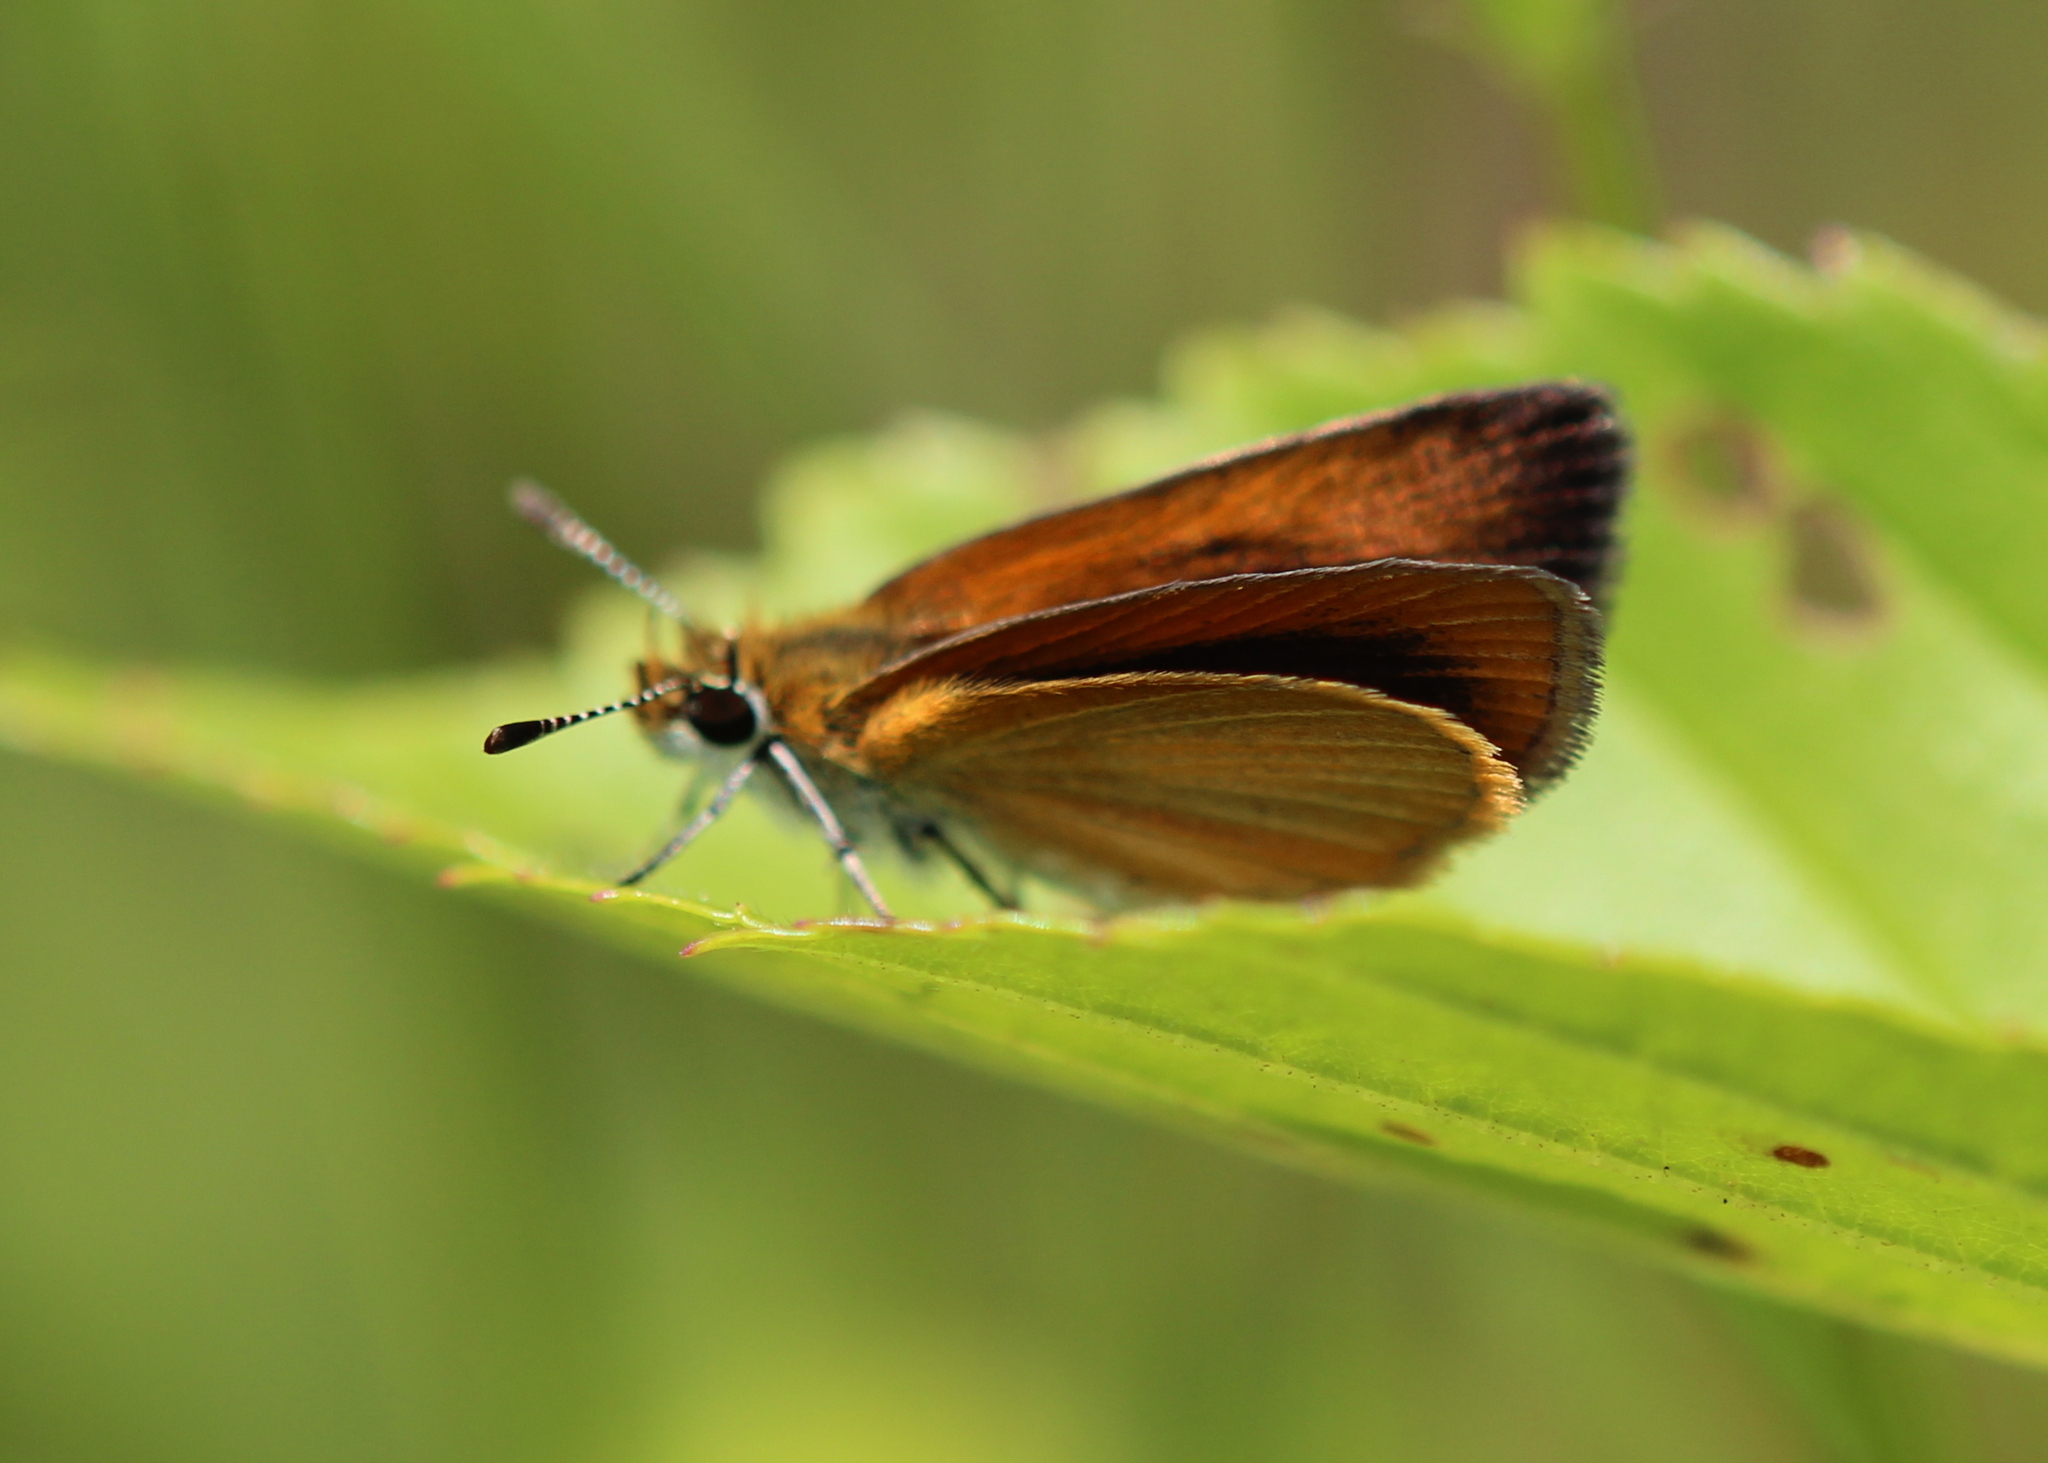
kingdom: Animalia
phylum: Arthropoda
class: Insecta
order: Lepidoptera
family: Hesperiidae
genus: Ancyloxypha
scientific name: Ancyloxypha numitor
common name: Least skipper
